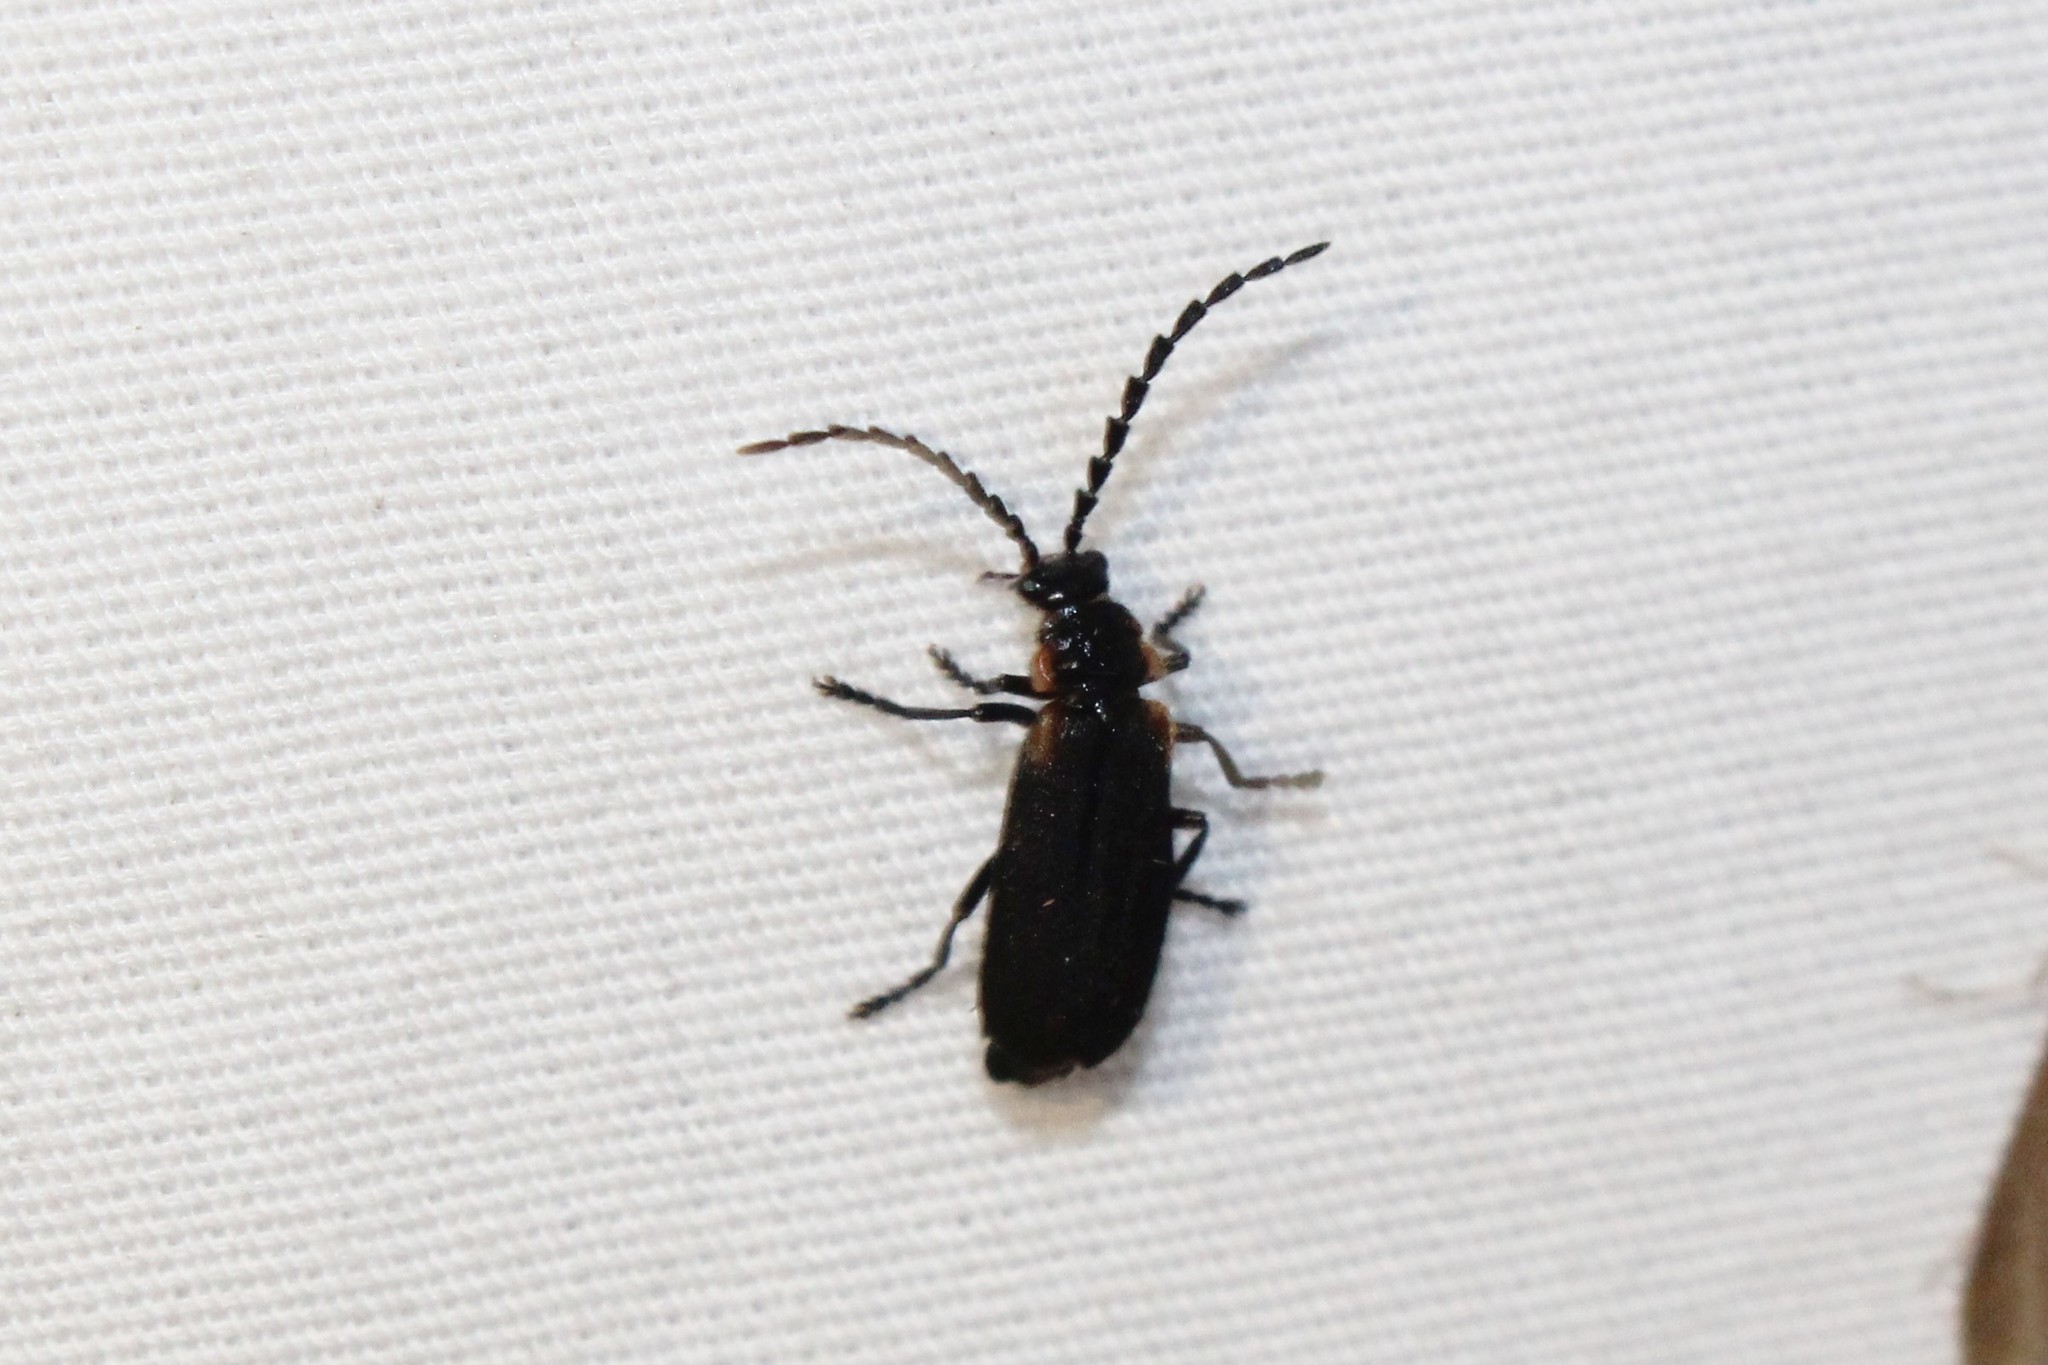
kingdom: Animalia
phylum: Arthropoda
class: Insecta
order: Coleoptera
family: Cantharidae
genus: Polemius
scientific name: Polemius laticornis
